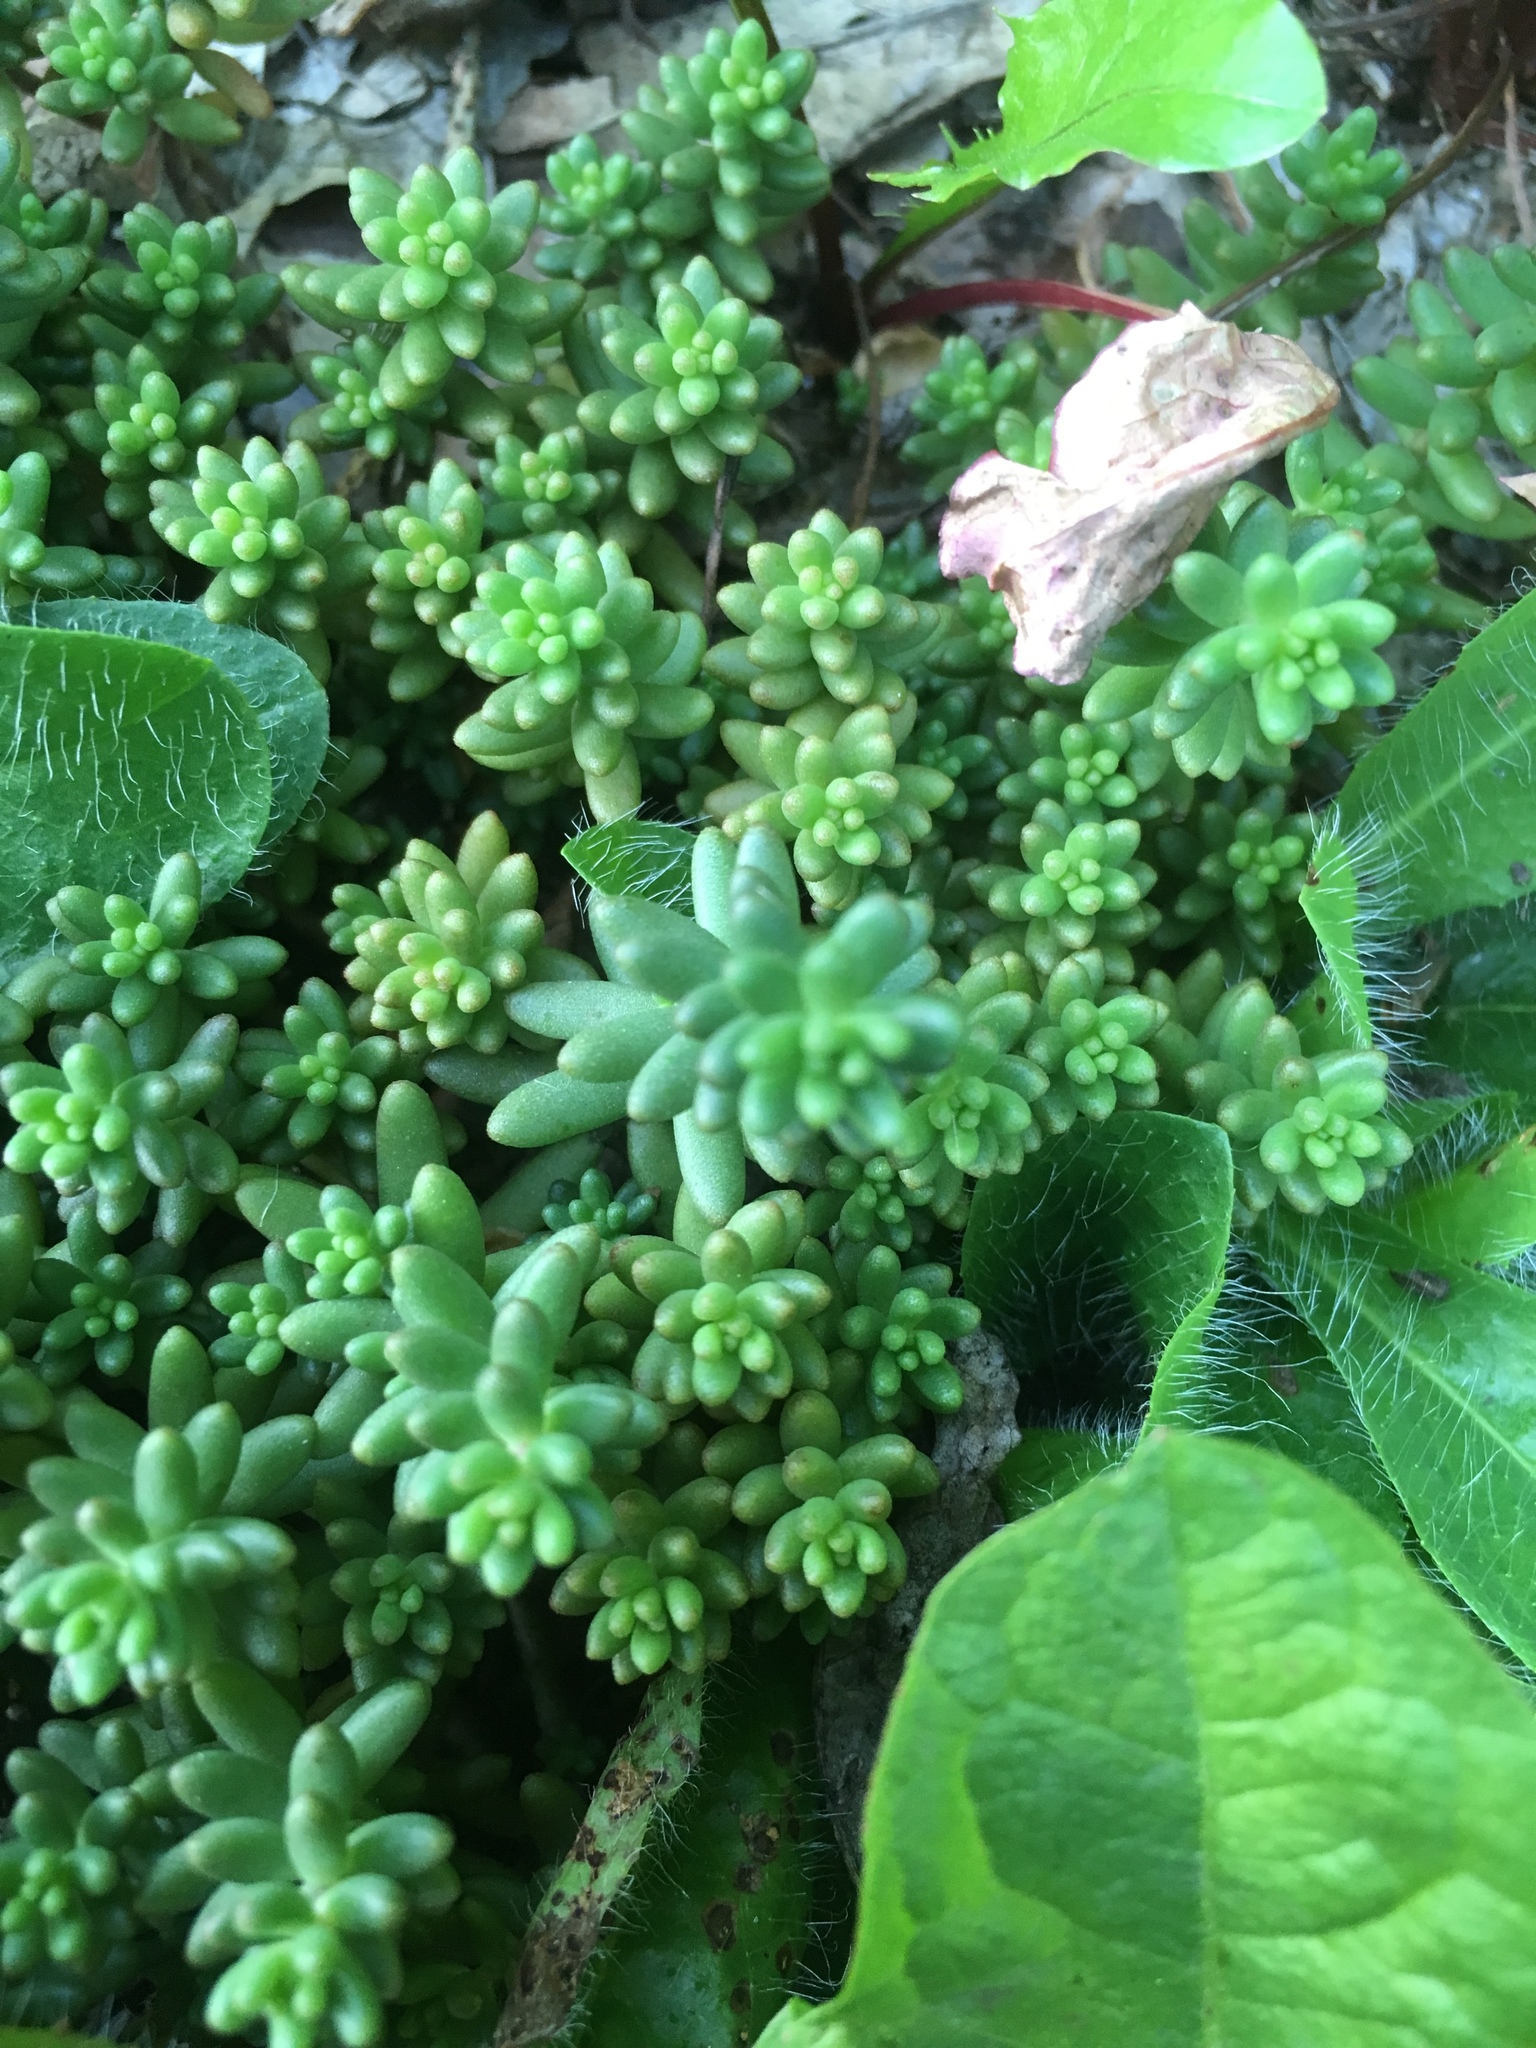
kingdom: Plantae
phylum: Tracheophyta
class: Magnoliopsida
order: Saxifragales
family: Crassulaceae
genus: Sedum
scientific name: Sedum album
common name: White stonecrop
